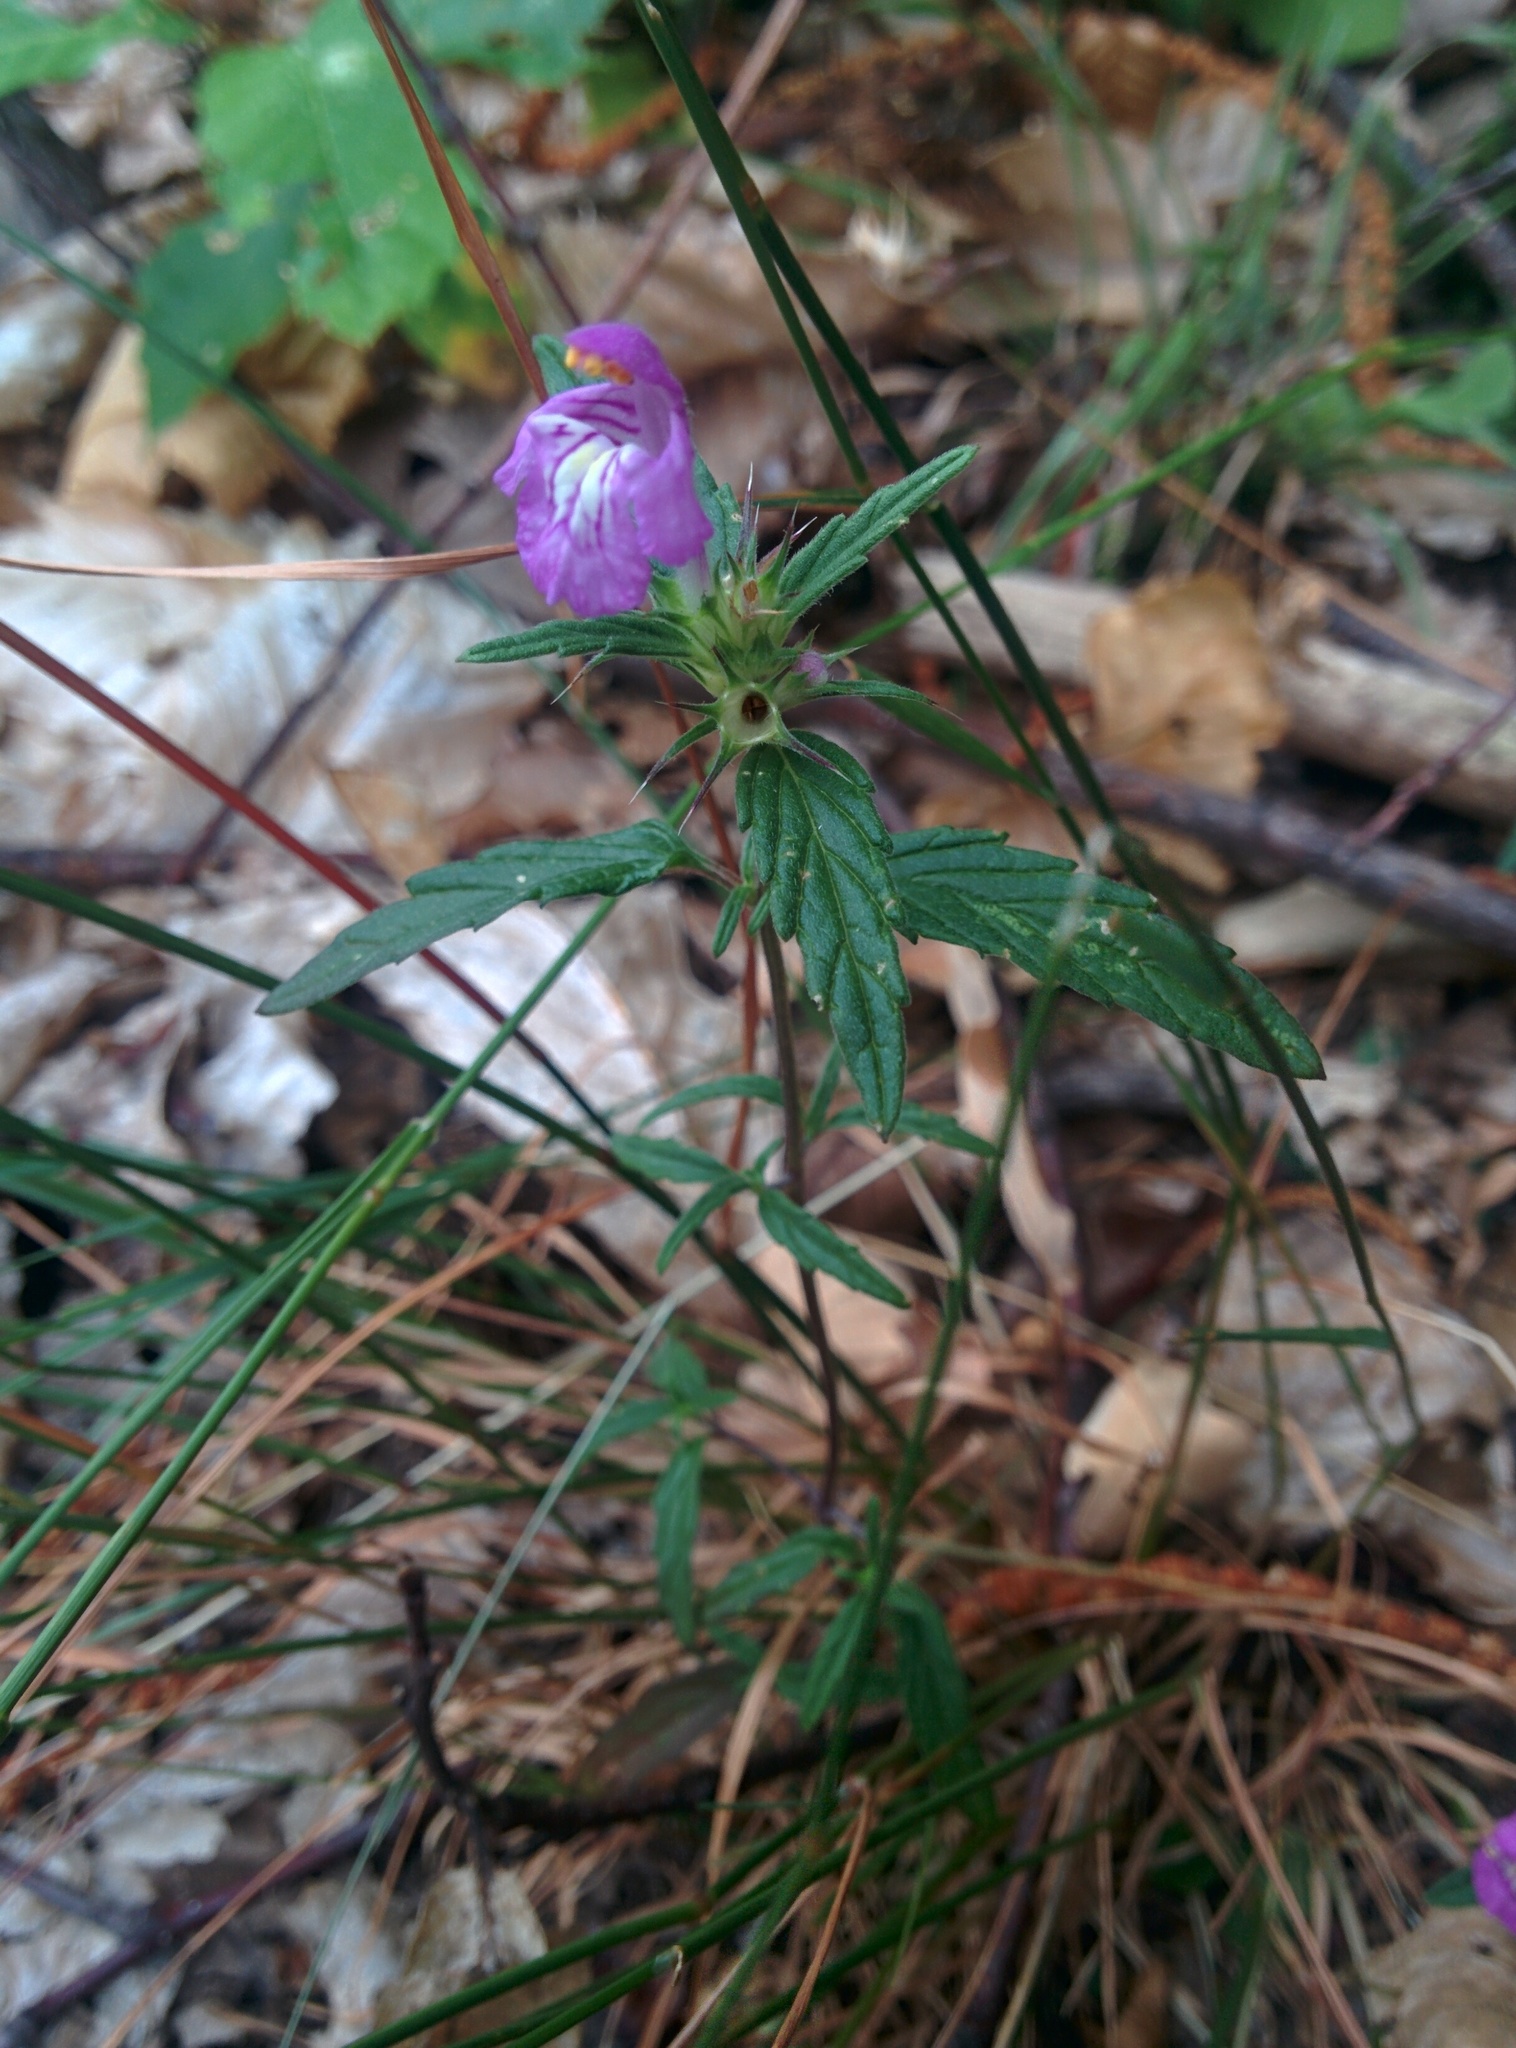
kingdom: Plantae
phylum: Tracheophyta
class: Magnoliopsida
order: Lamiales
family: Lamiaceae
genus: Galeopsis
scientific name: Galeopsis ladanum
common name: Broad-leaved hemp-nettle
